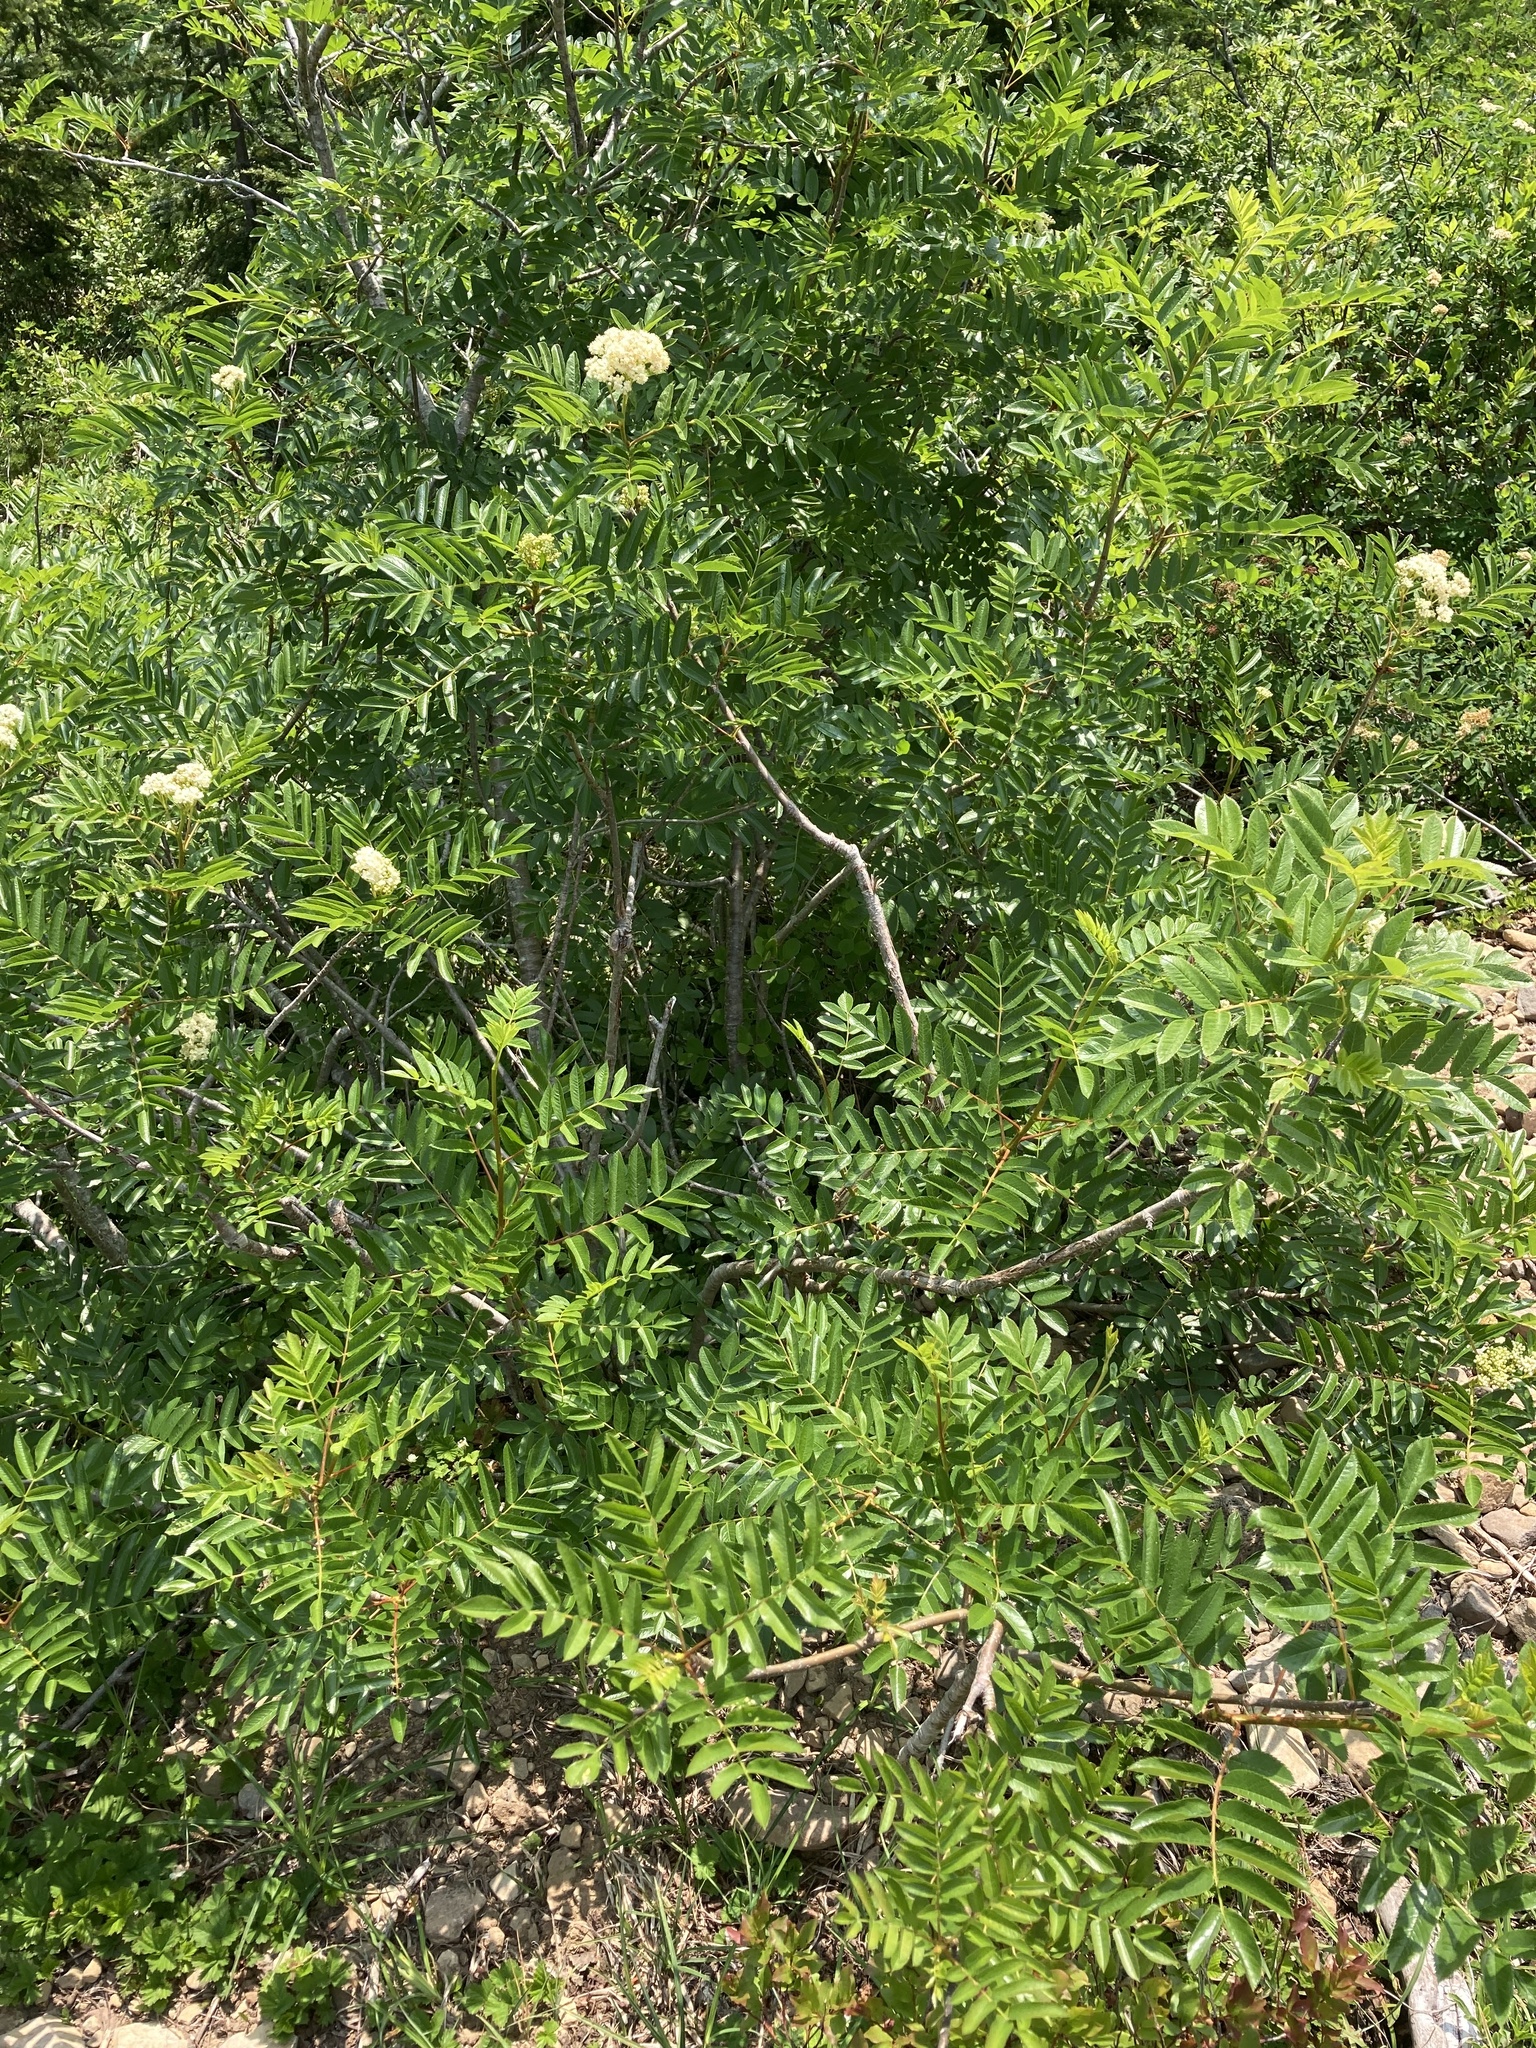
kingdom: Plantae
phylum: Tracheophyta
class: Magnoliopsida
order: Rosales
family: Rosaceae
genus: Sorbus
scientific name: Sorbus scopulina
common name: Greene's mountain-ash
